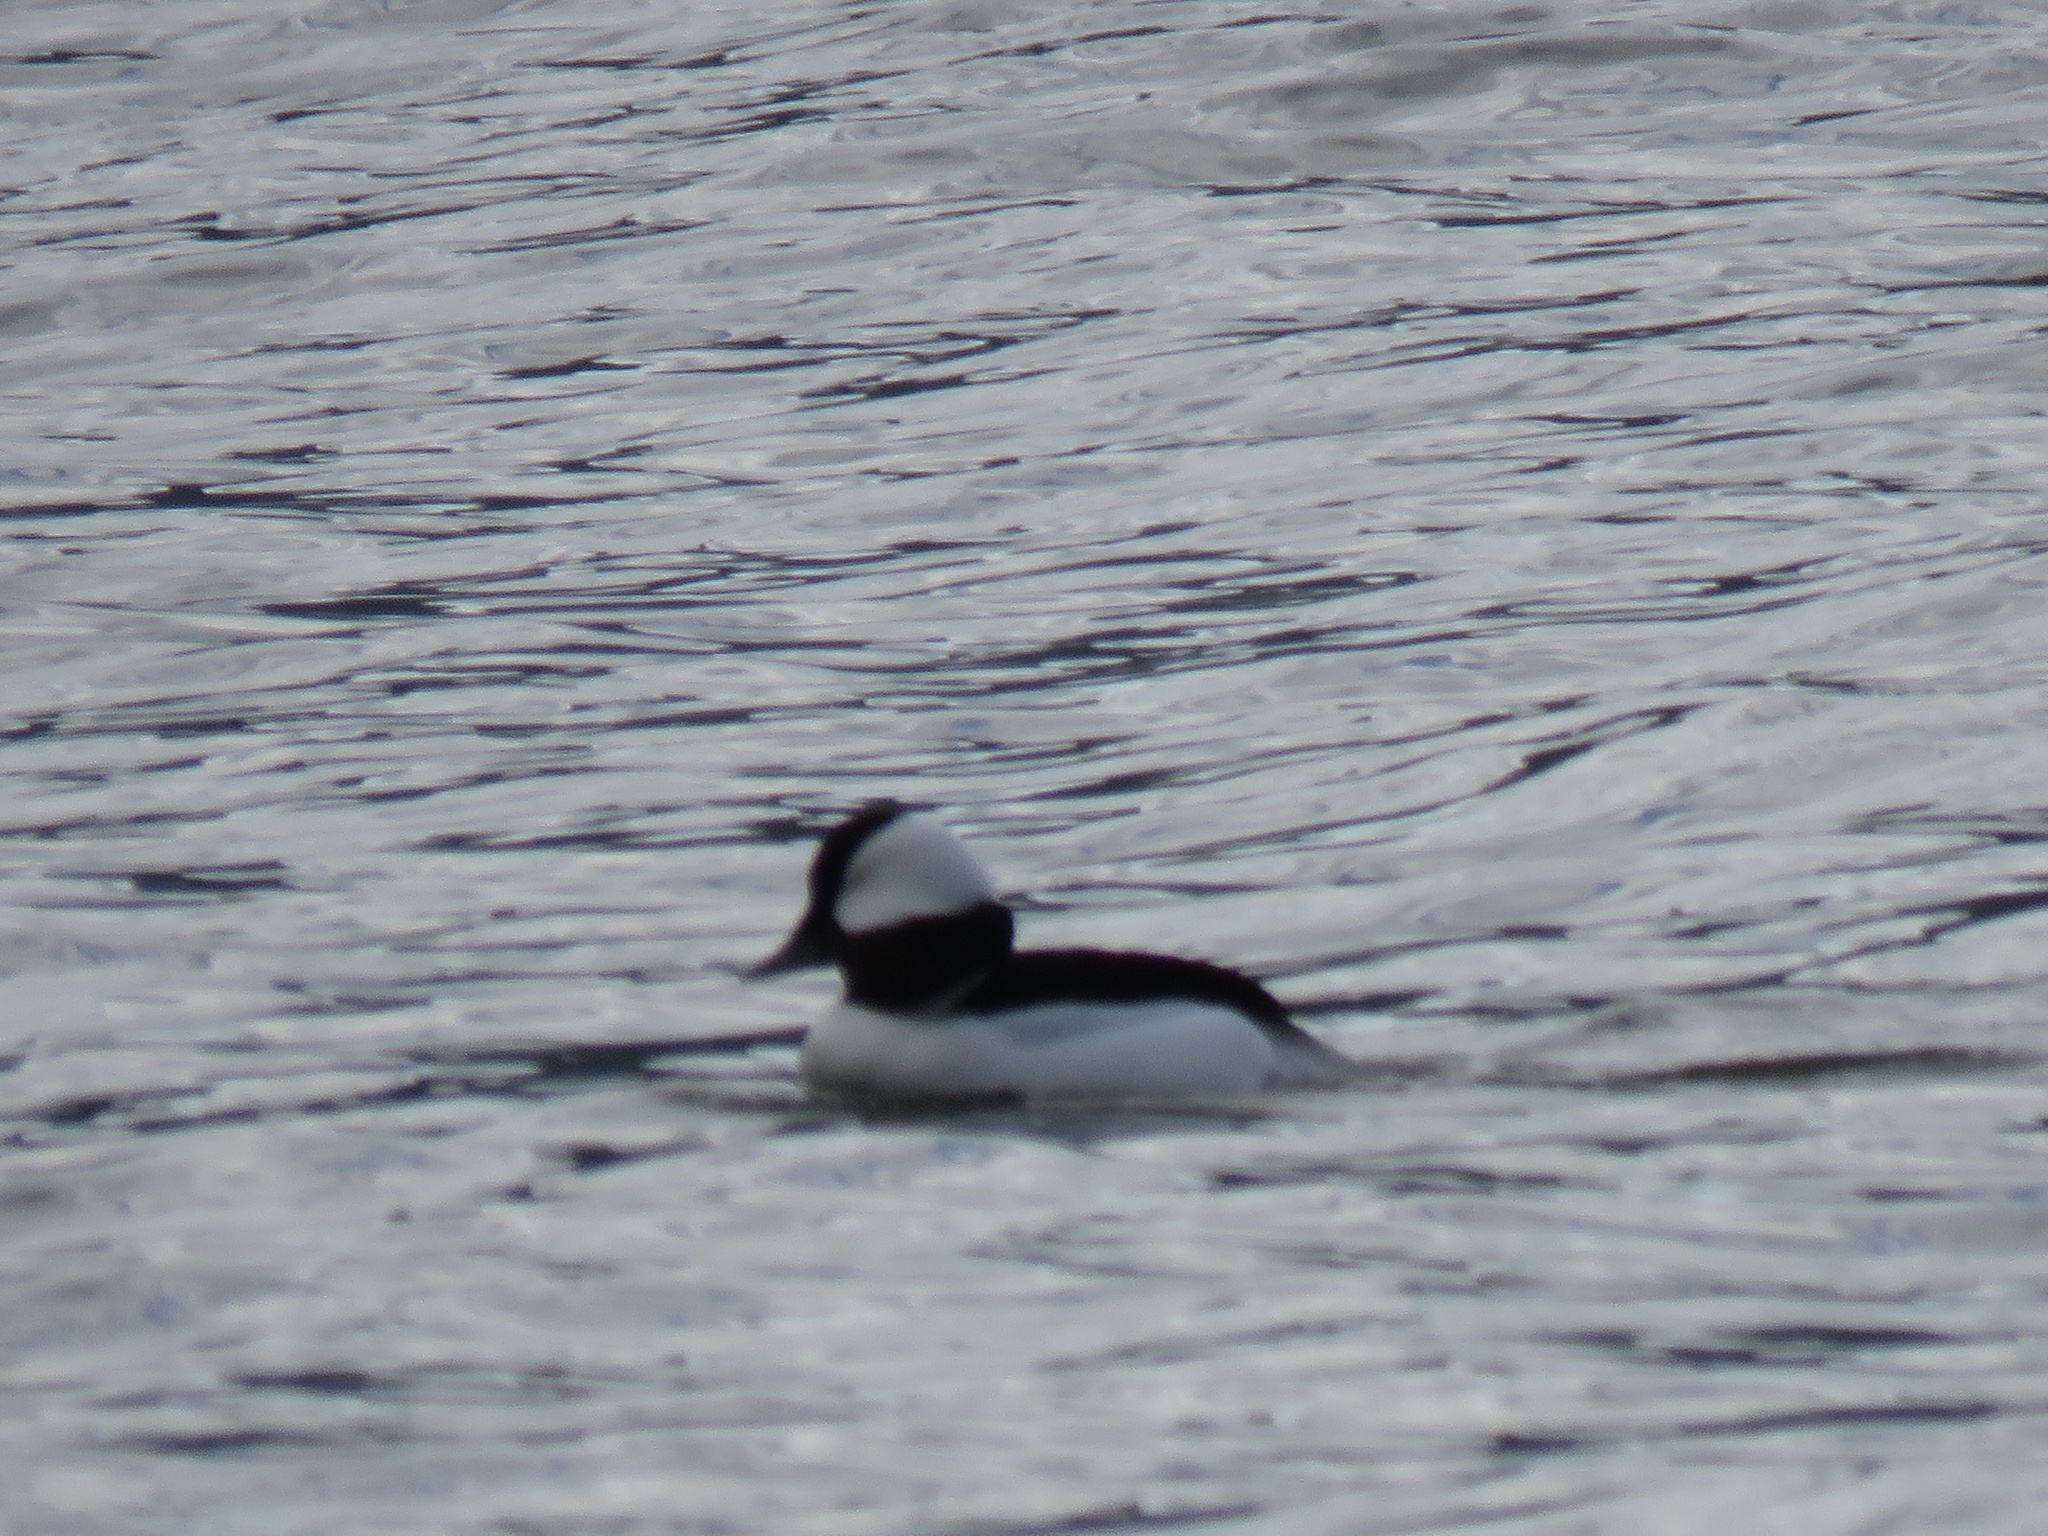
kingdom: Animalia
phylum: Chordata
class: Aves
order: Anseriformes
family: Anatidae
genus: Bucephala
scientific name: Bucephala albeola
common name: Bufflehead
